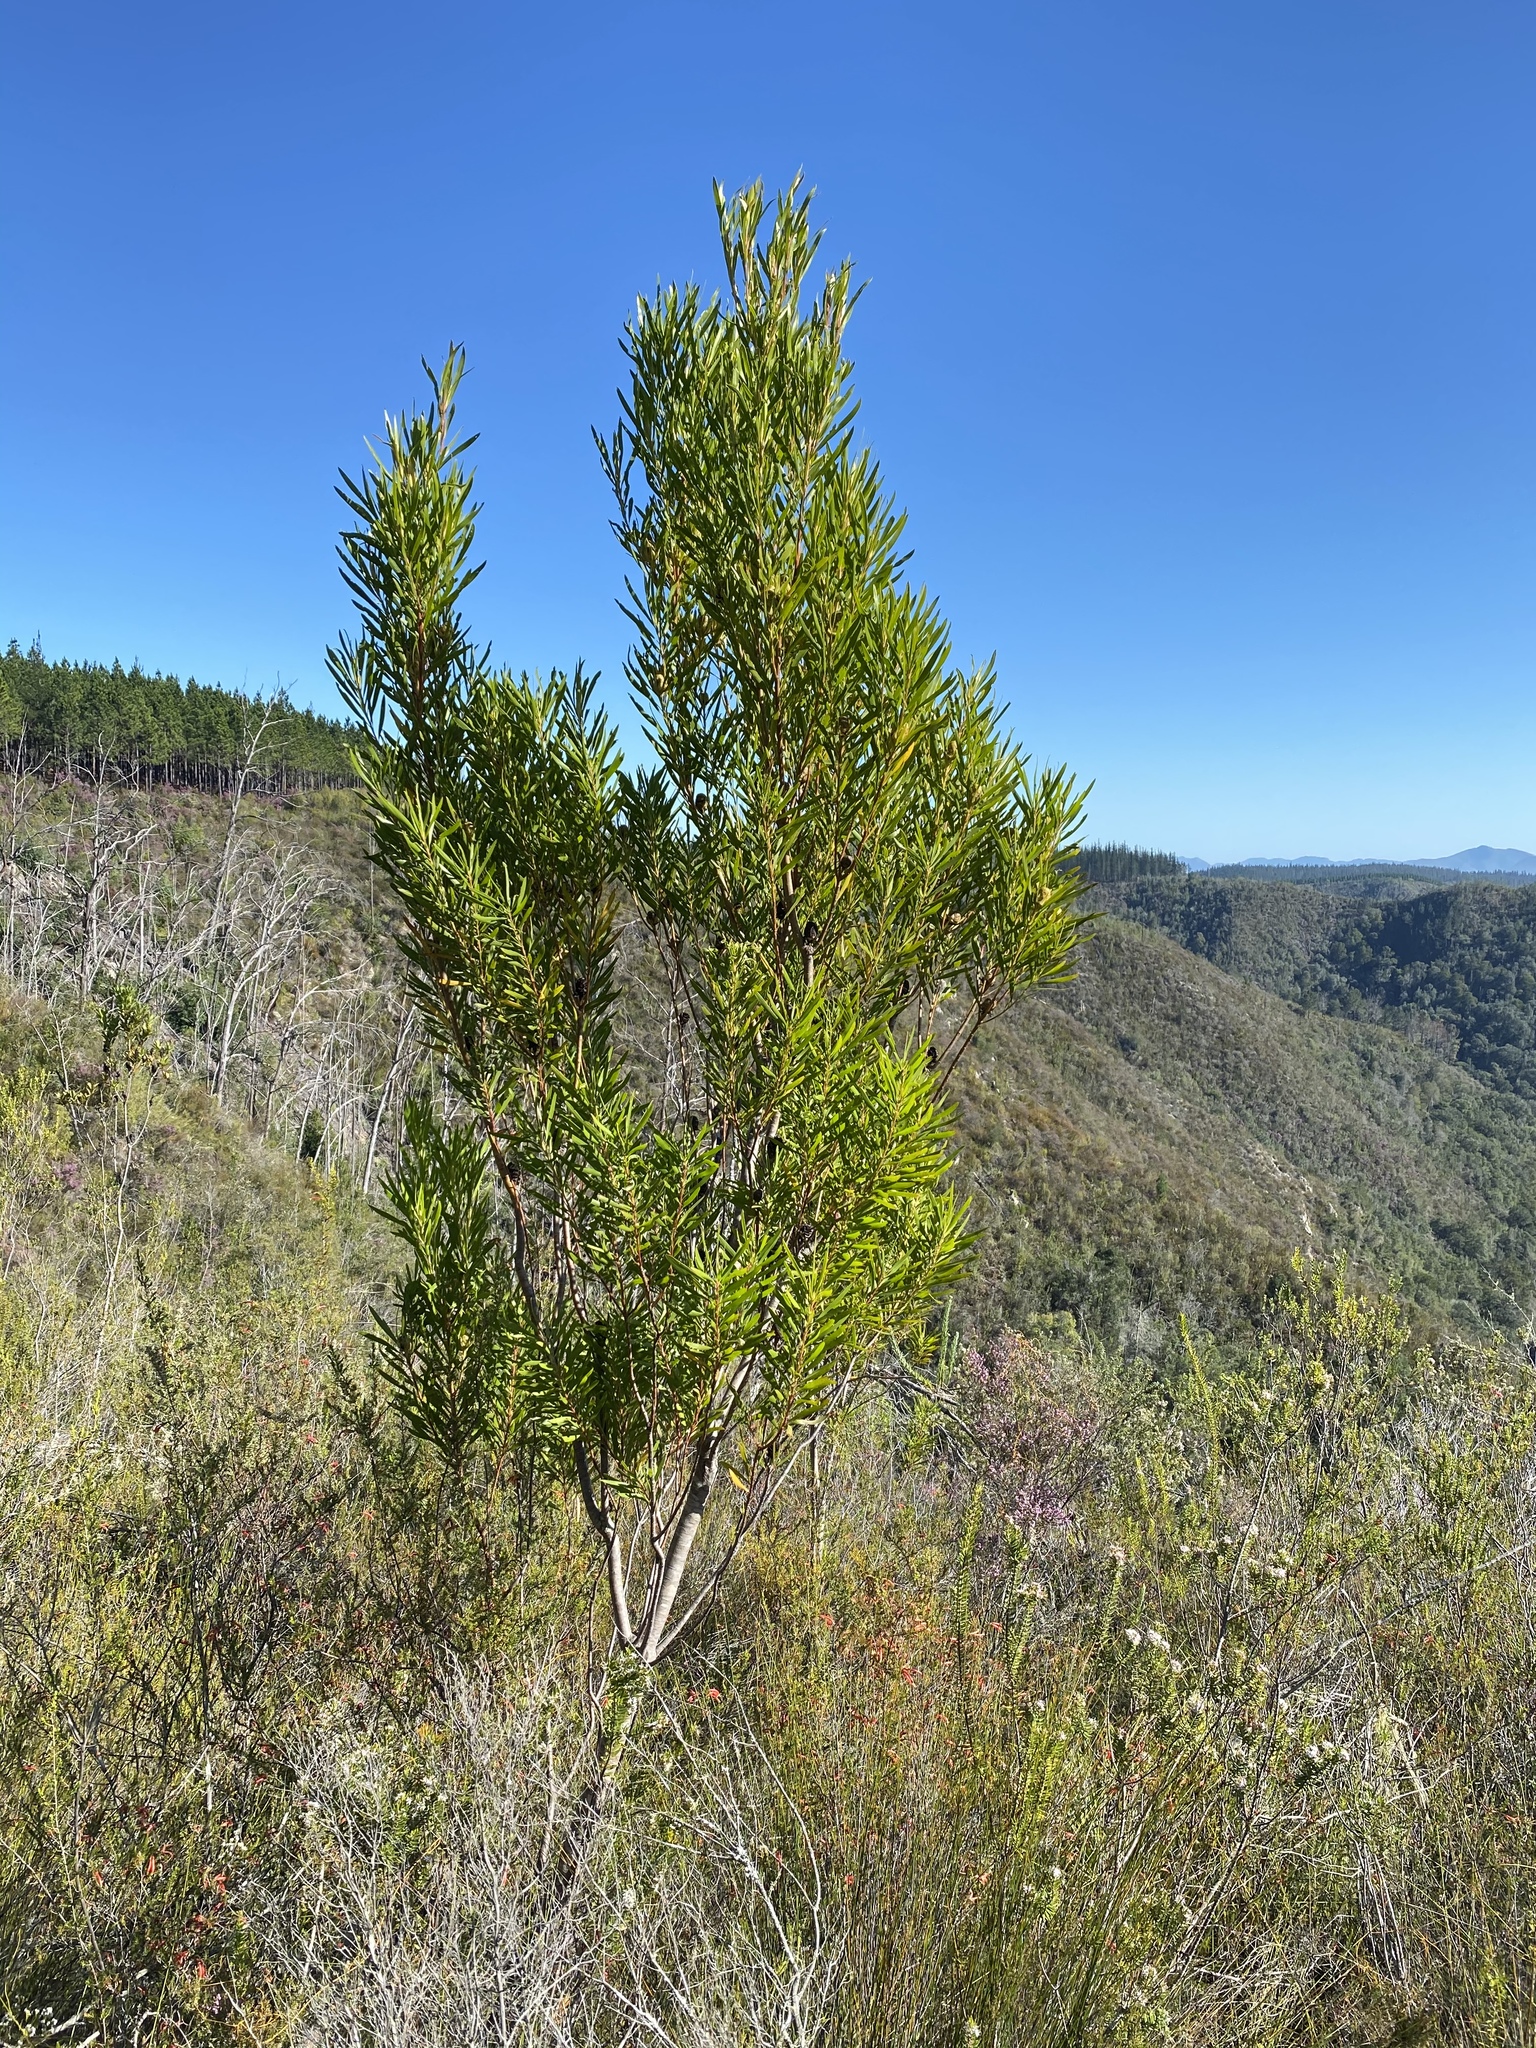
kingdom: Plantae
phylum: Tracheophyta
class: Magnoliopsida
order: Proteales
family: Proteaceae
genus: Leucadendron
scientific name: Leucadendron eucalyptifolium
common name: Gum-leaved conebush
